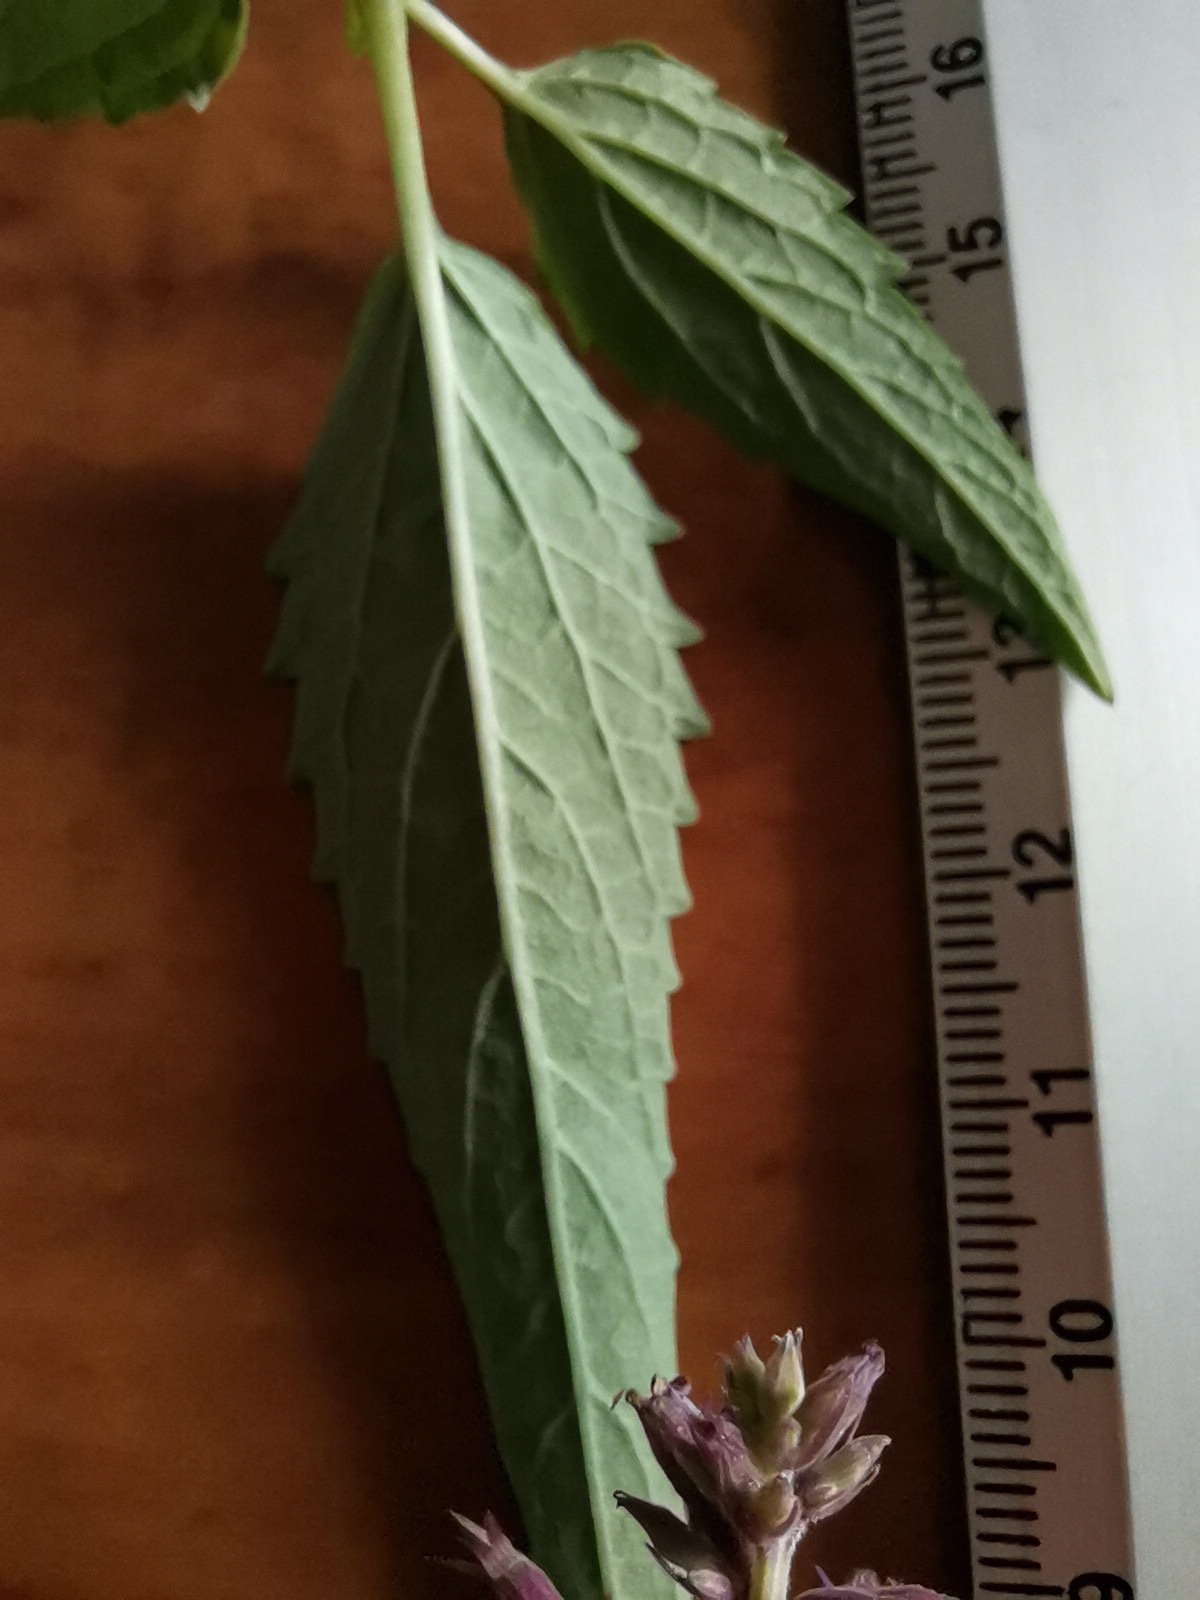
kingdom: Plantae
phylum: Tracheophyta
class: Magnoliopsida
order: Lamiales
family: Lamiaceae
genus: Agastache
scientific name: Agastache mexicana
